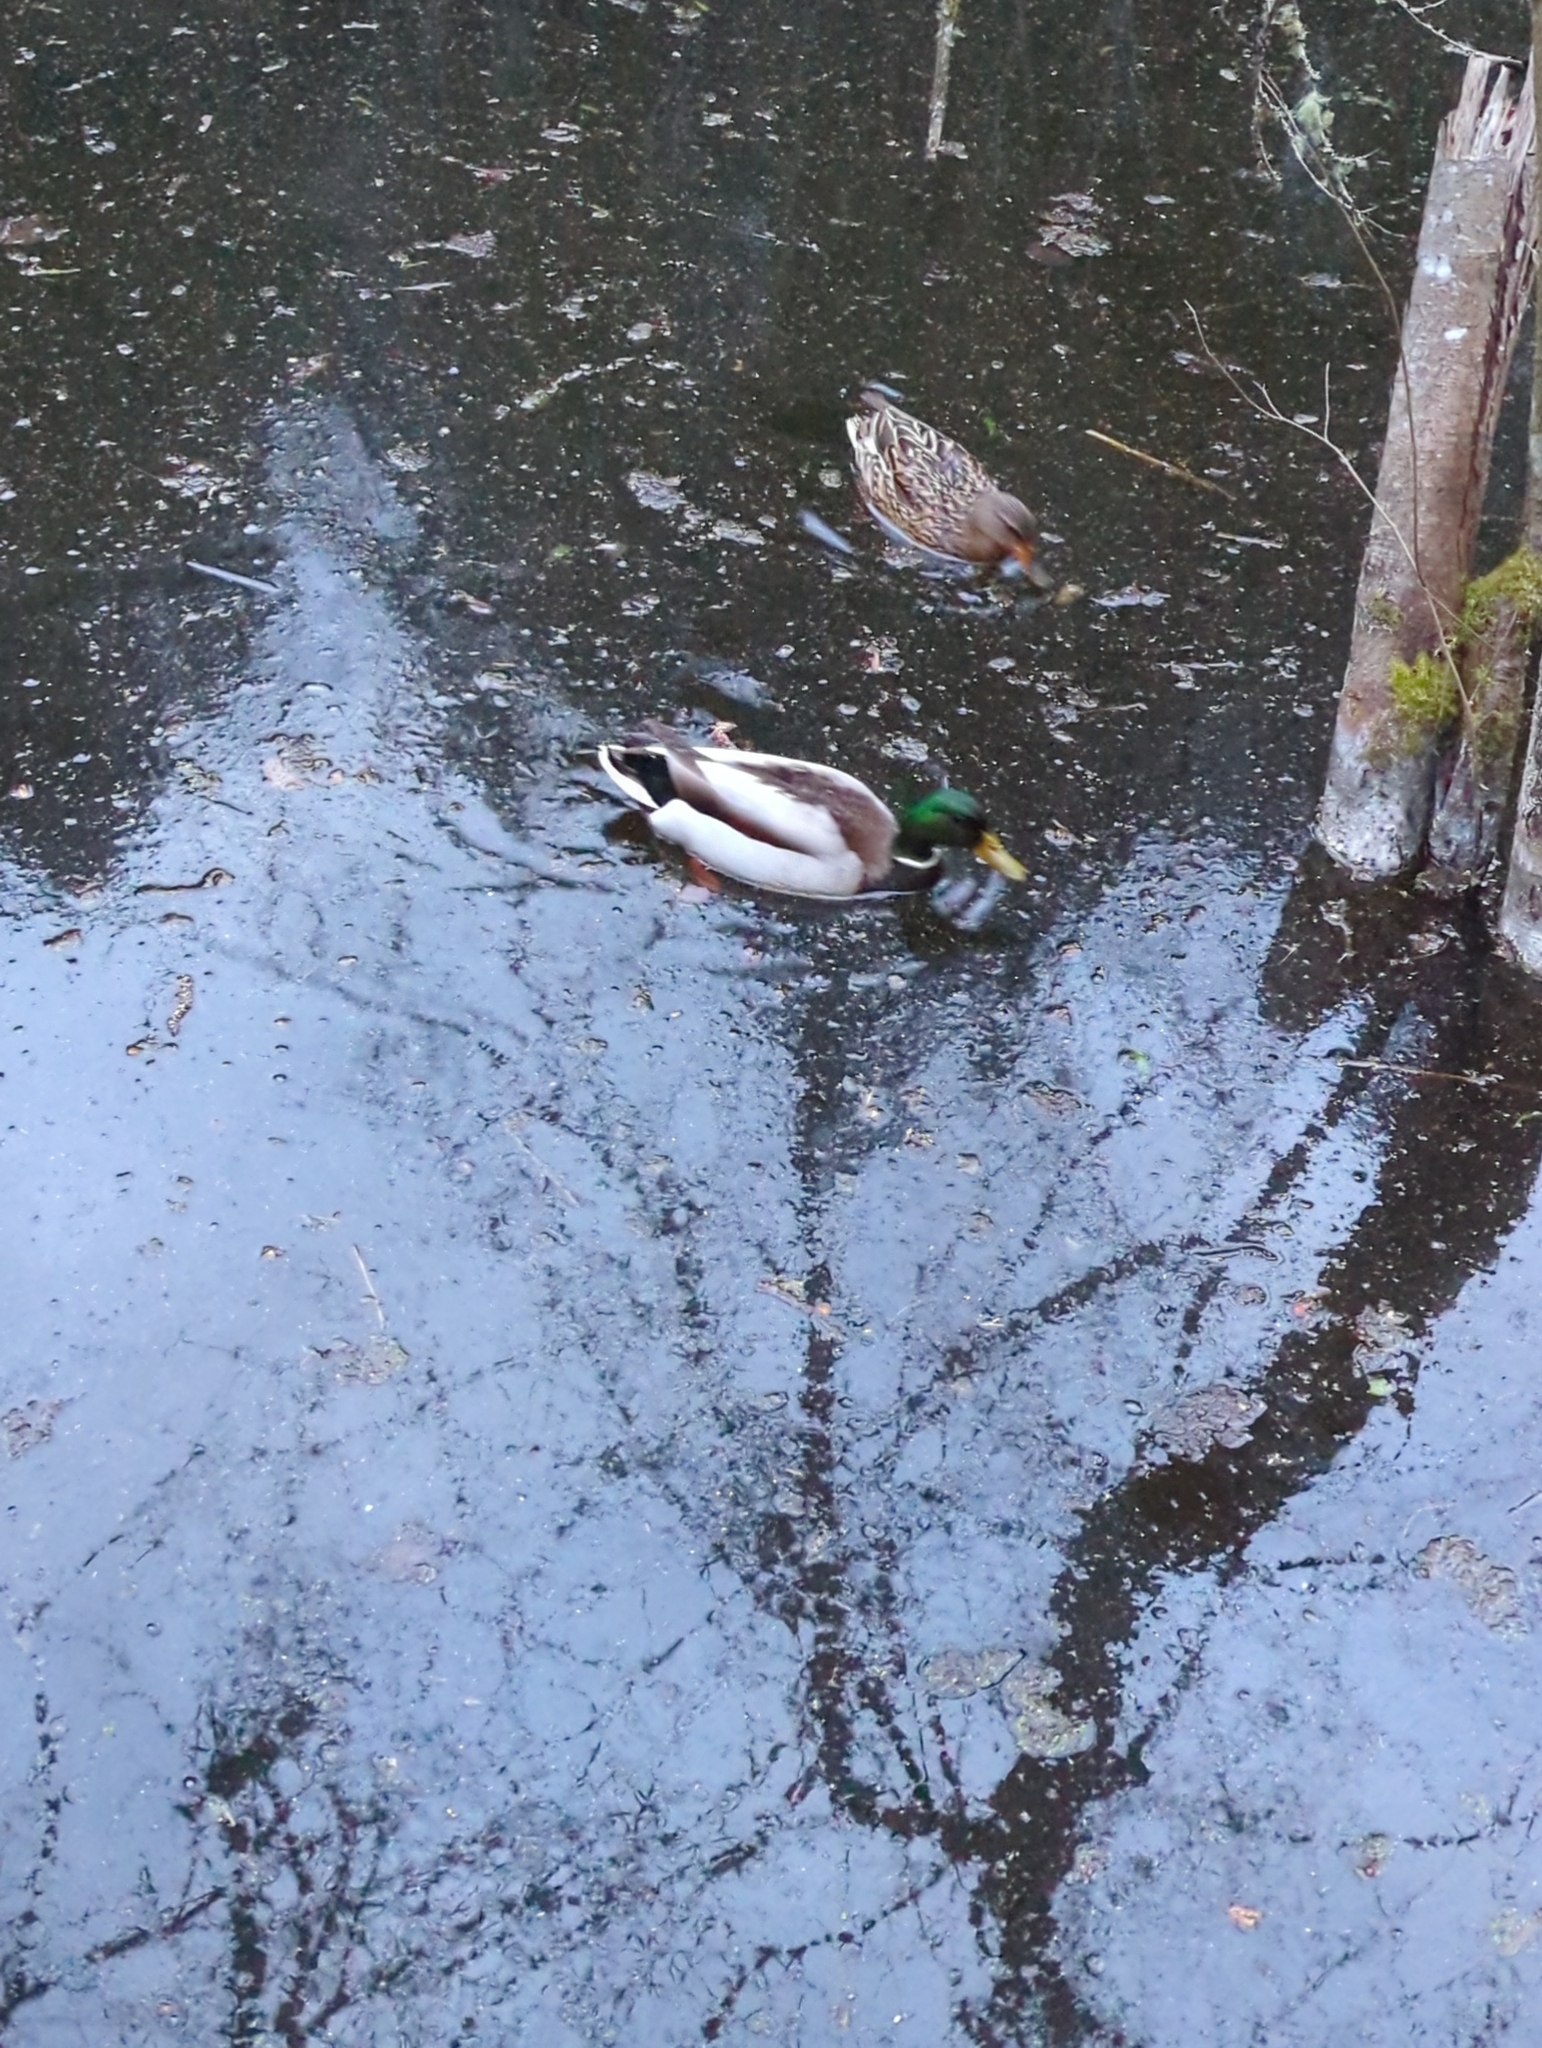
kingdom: Animalia
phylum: Chordata
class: Aves
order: Anseriformes
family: Anatidae
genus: Anas
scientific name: Anas platyrhynchos
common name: Mallard
